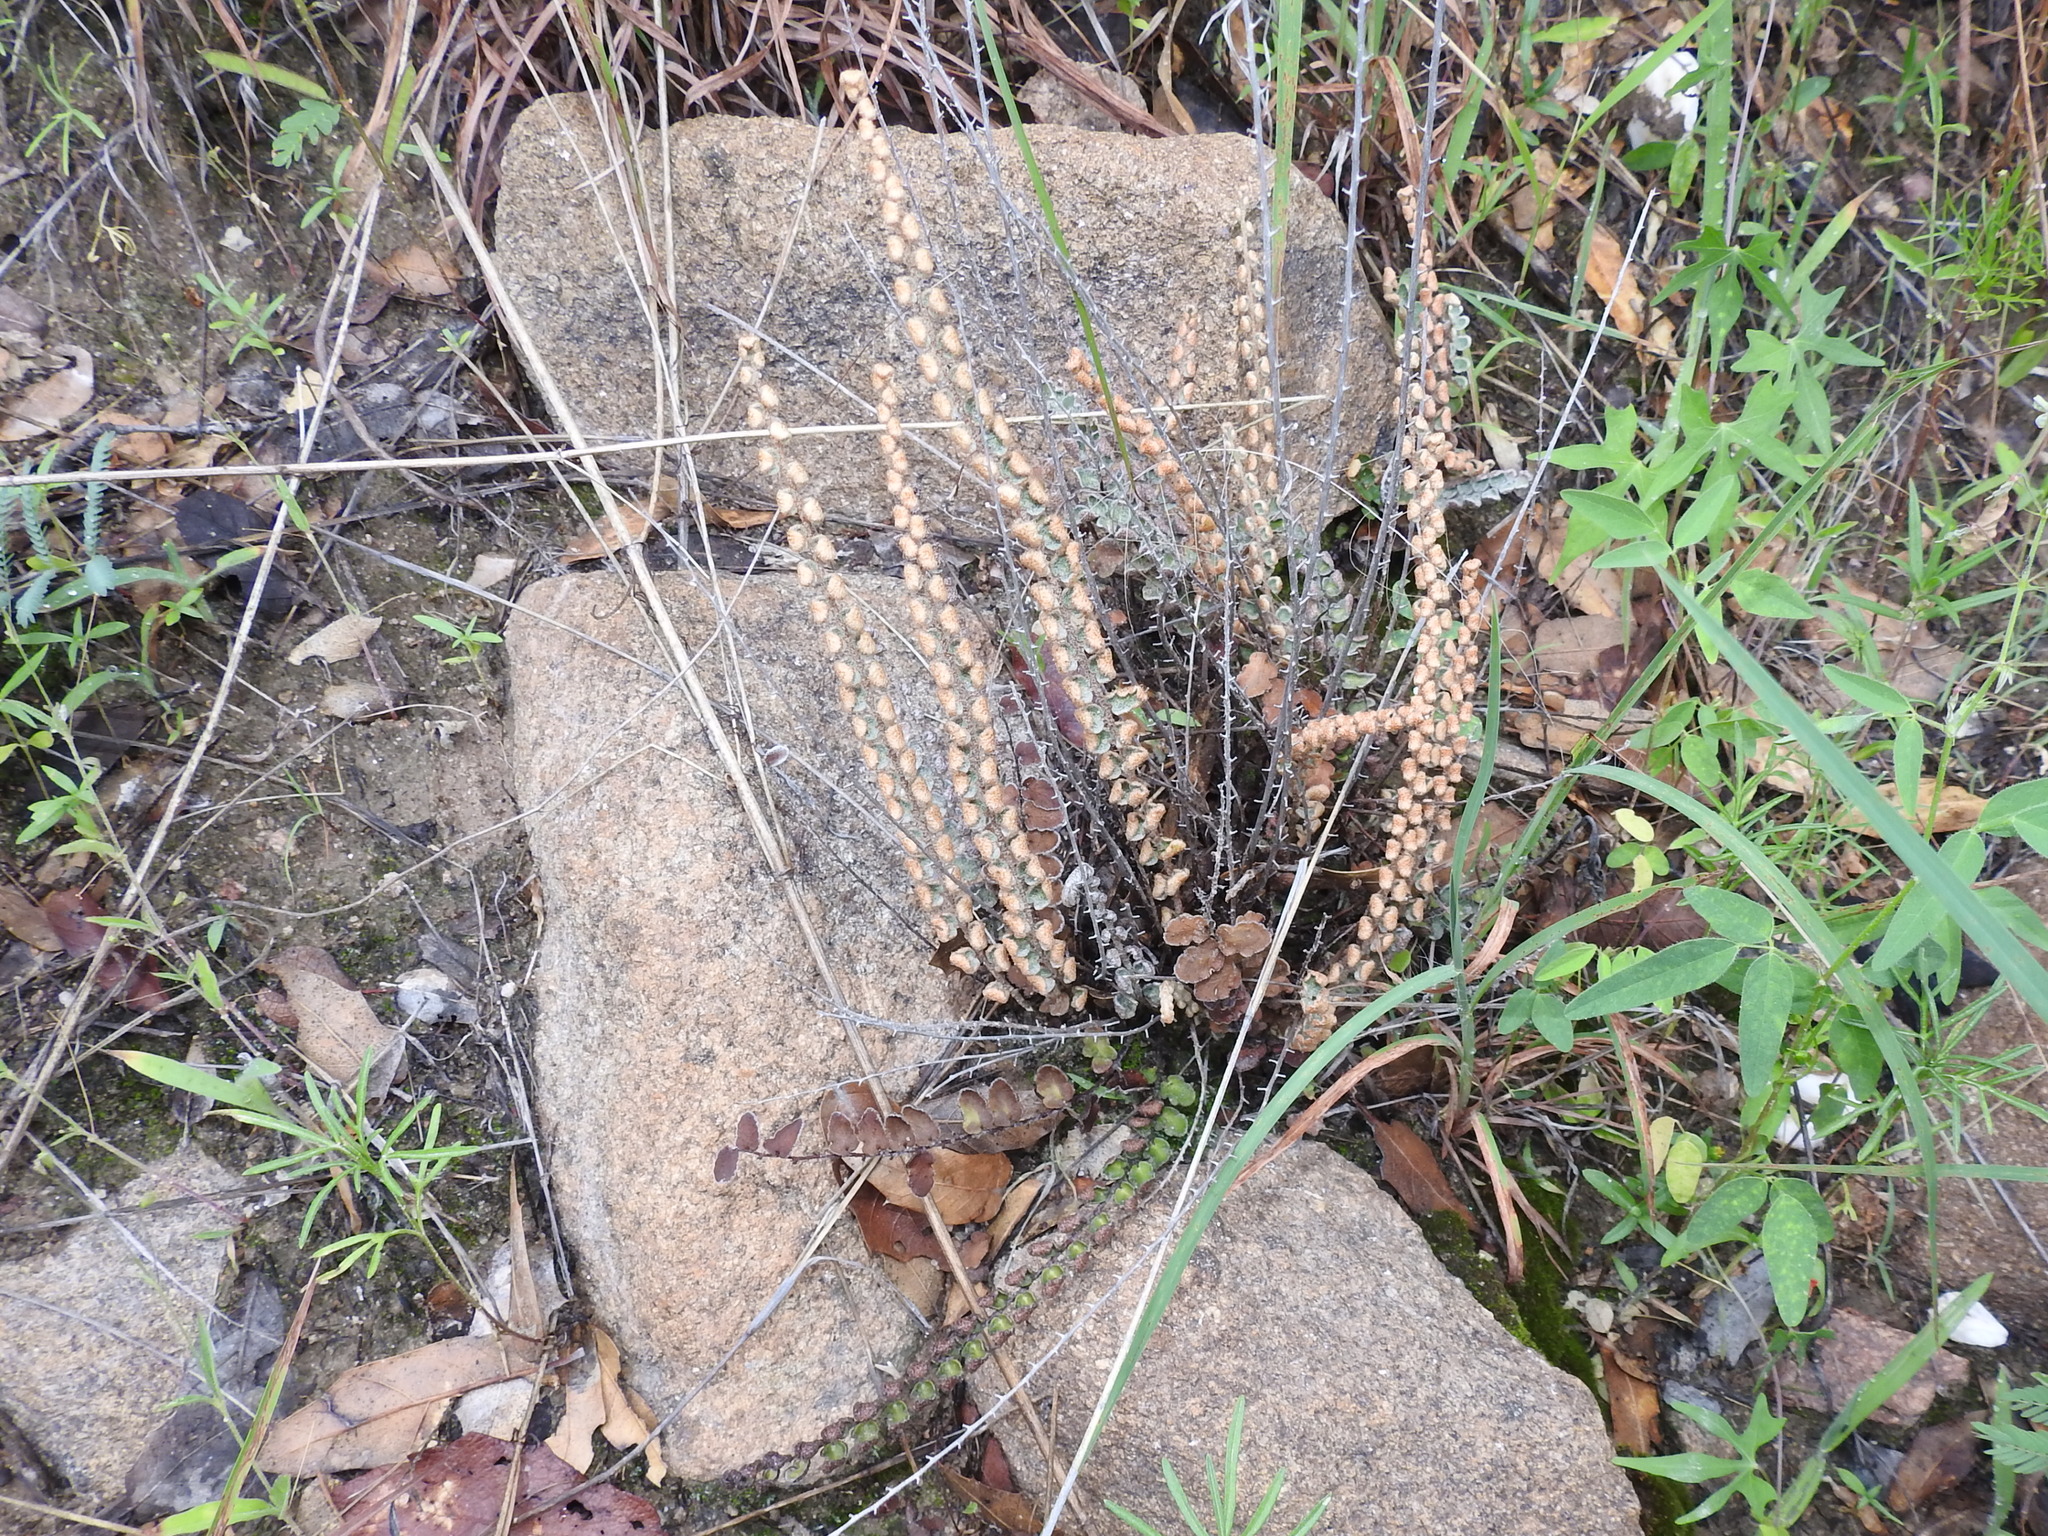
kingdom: Plantae
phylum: Tracheophyta
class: Polypodiopsida
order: Polypodiales
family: Pteridaceae
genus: Astrolepis
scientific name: Astrolepis windhamii
